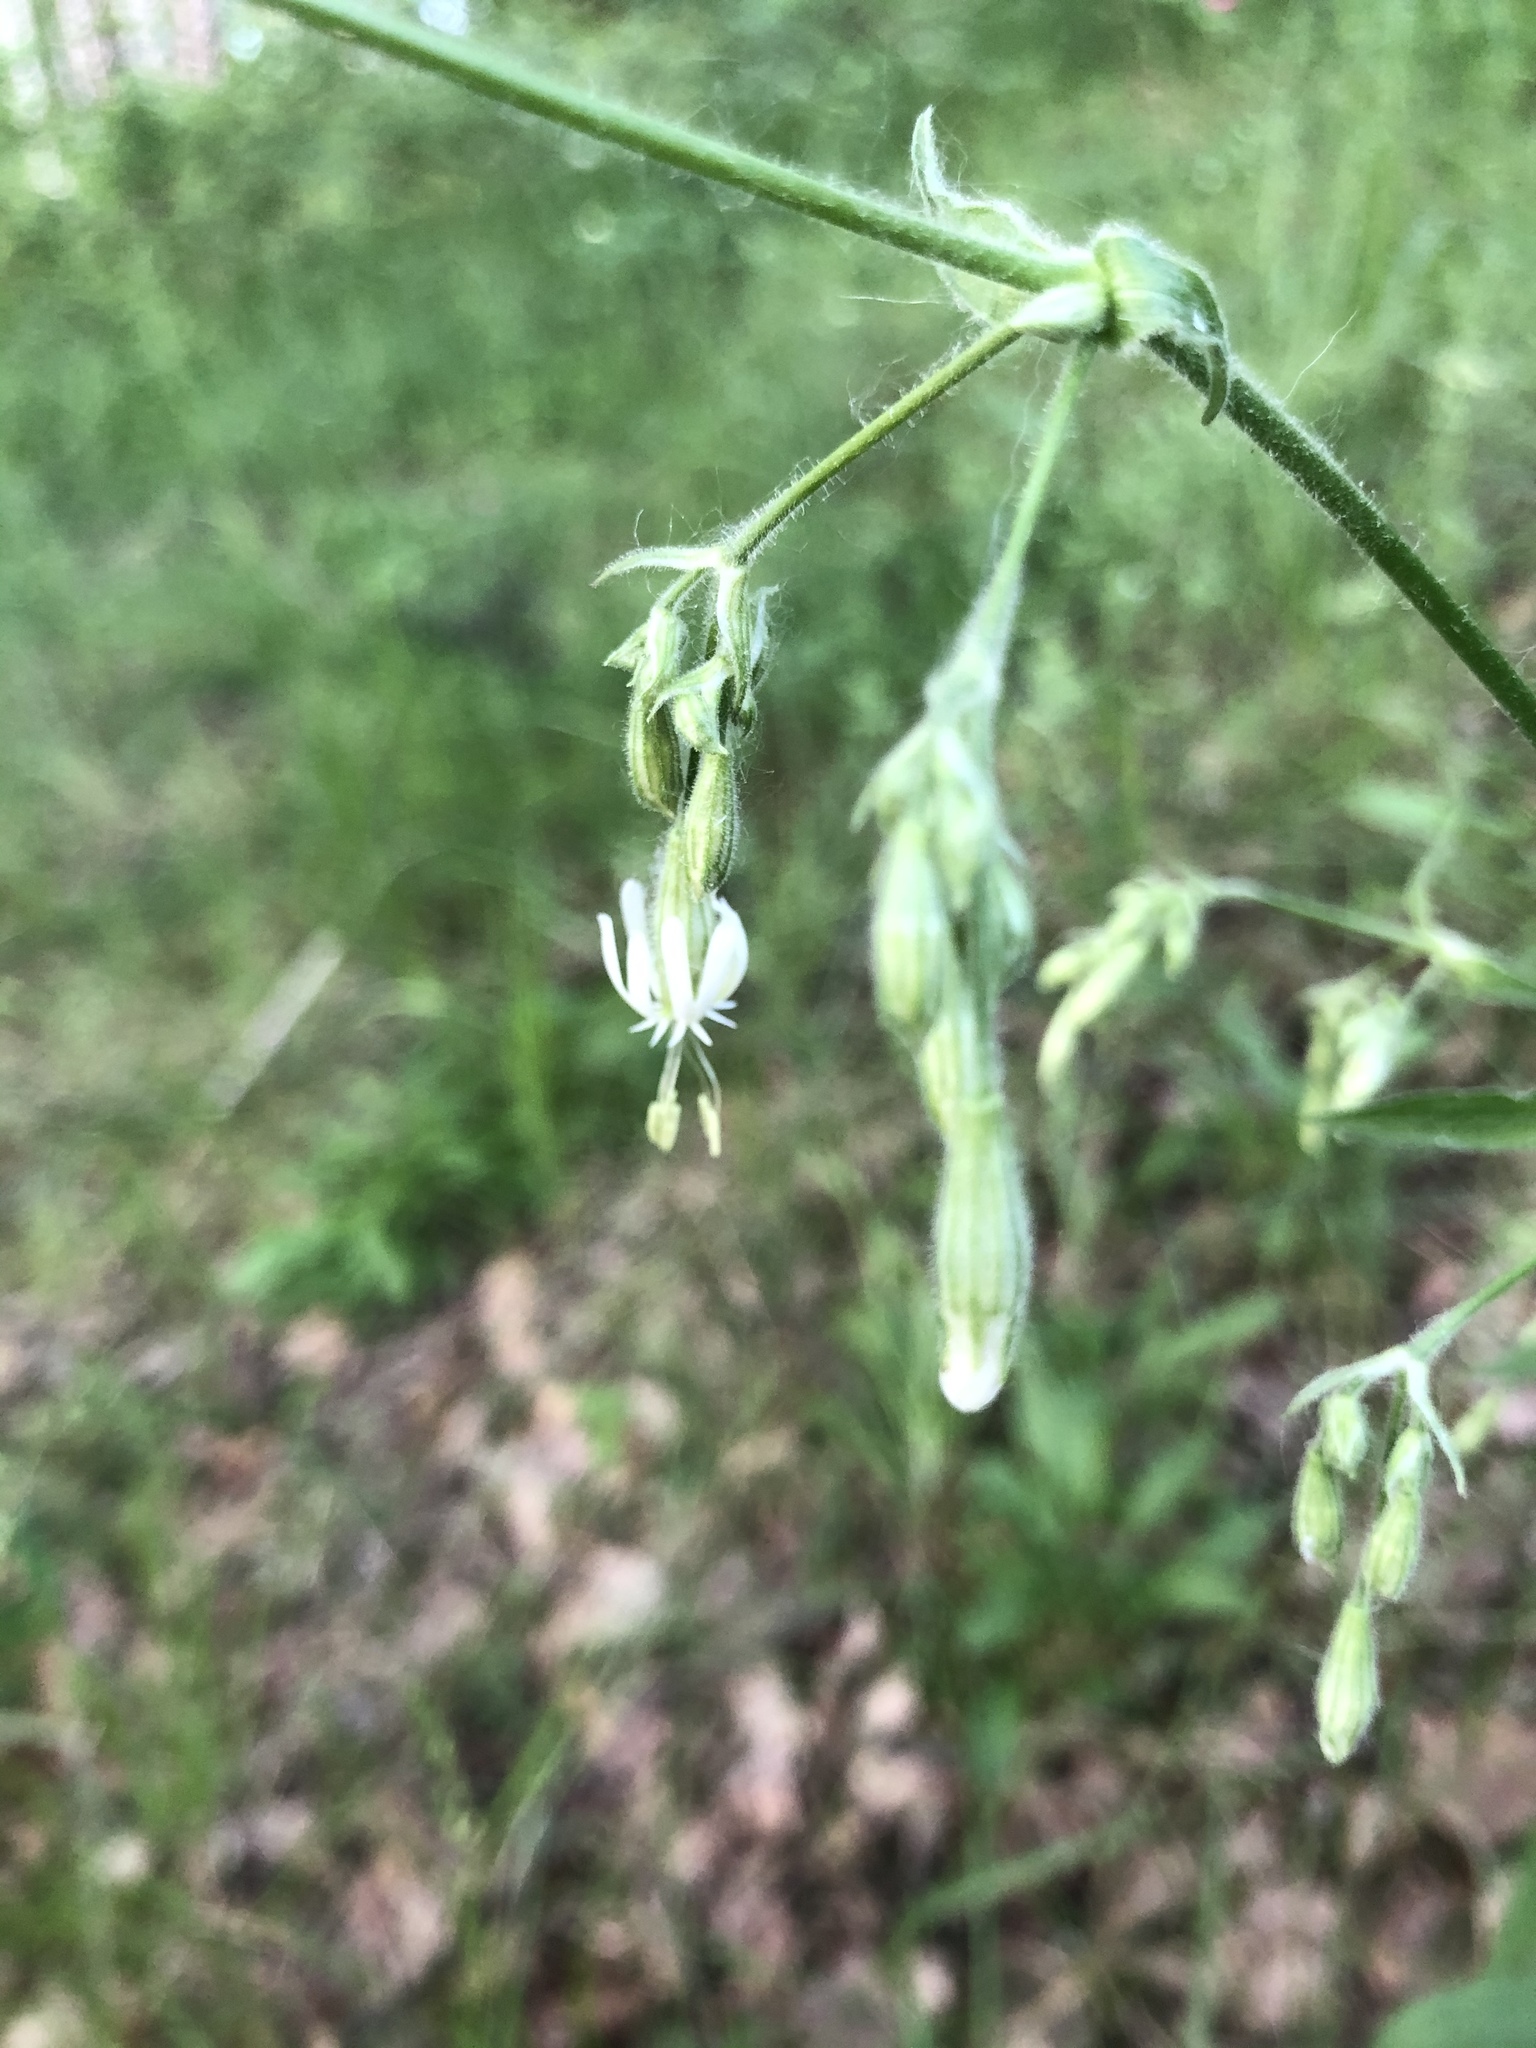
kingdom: Plantae
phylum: Tracheophyta
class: Magnoliopsida
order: Caryophyllales
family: Caryophyllaceae
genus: Silene
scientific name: Silene nutans
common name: Nottingham catchfly
